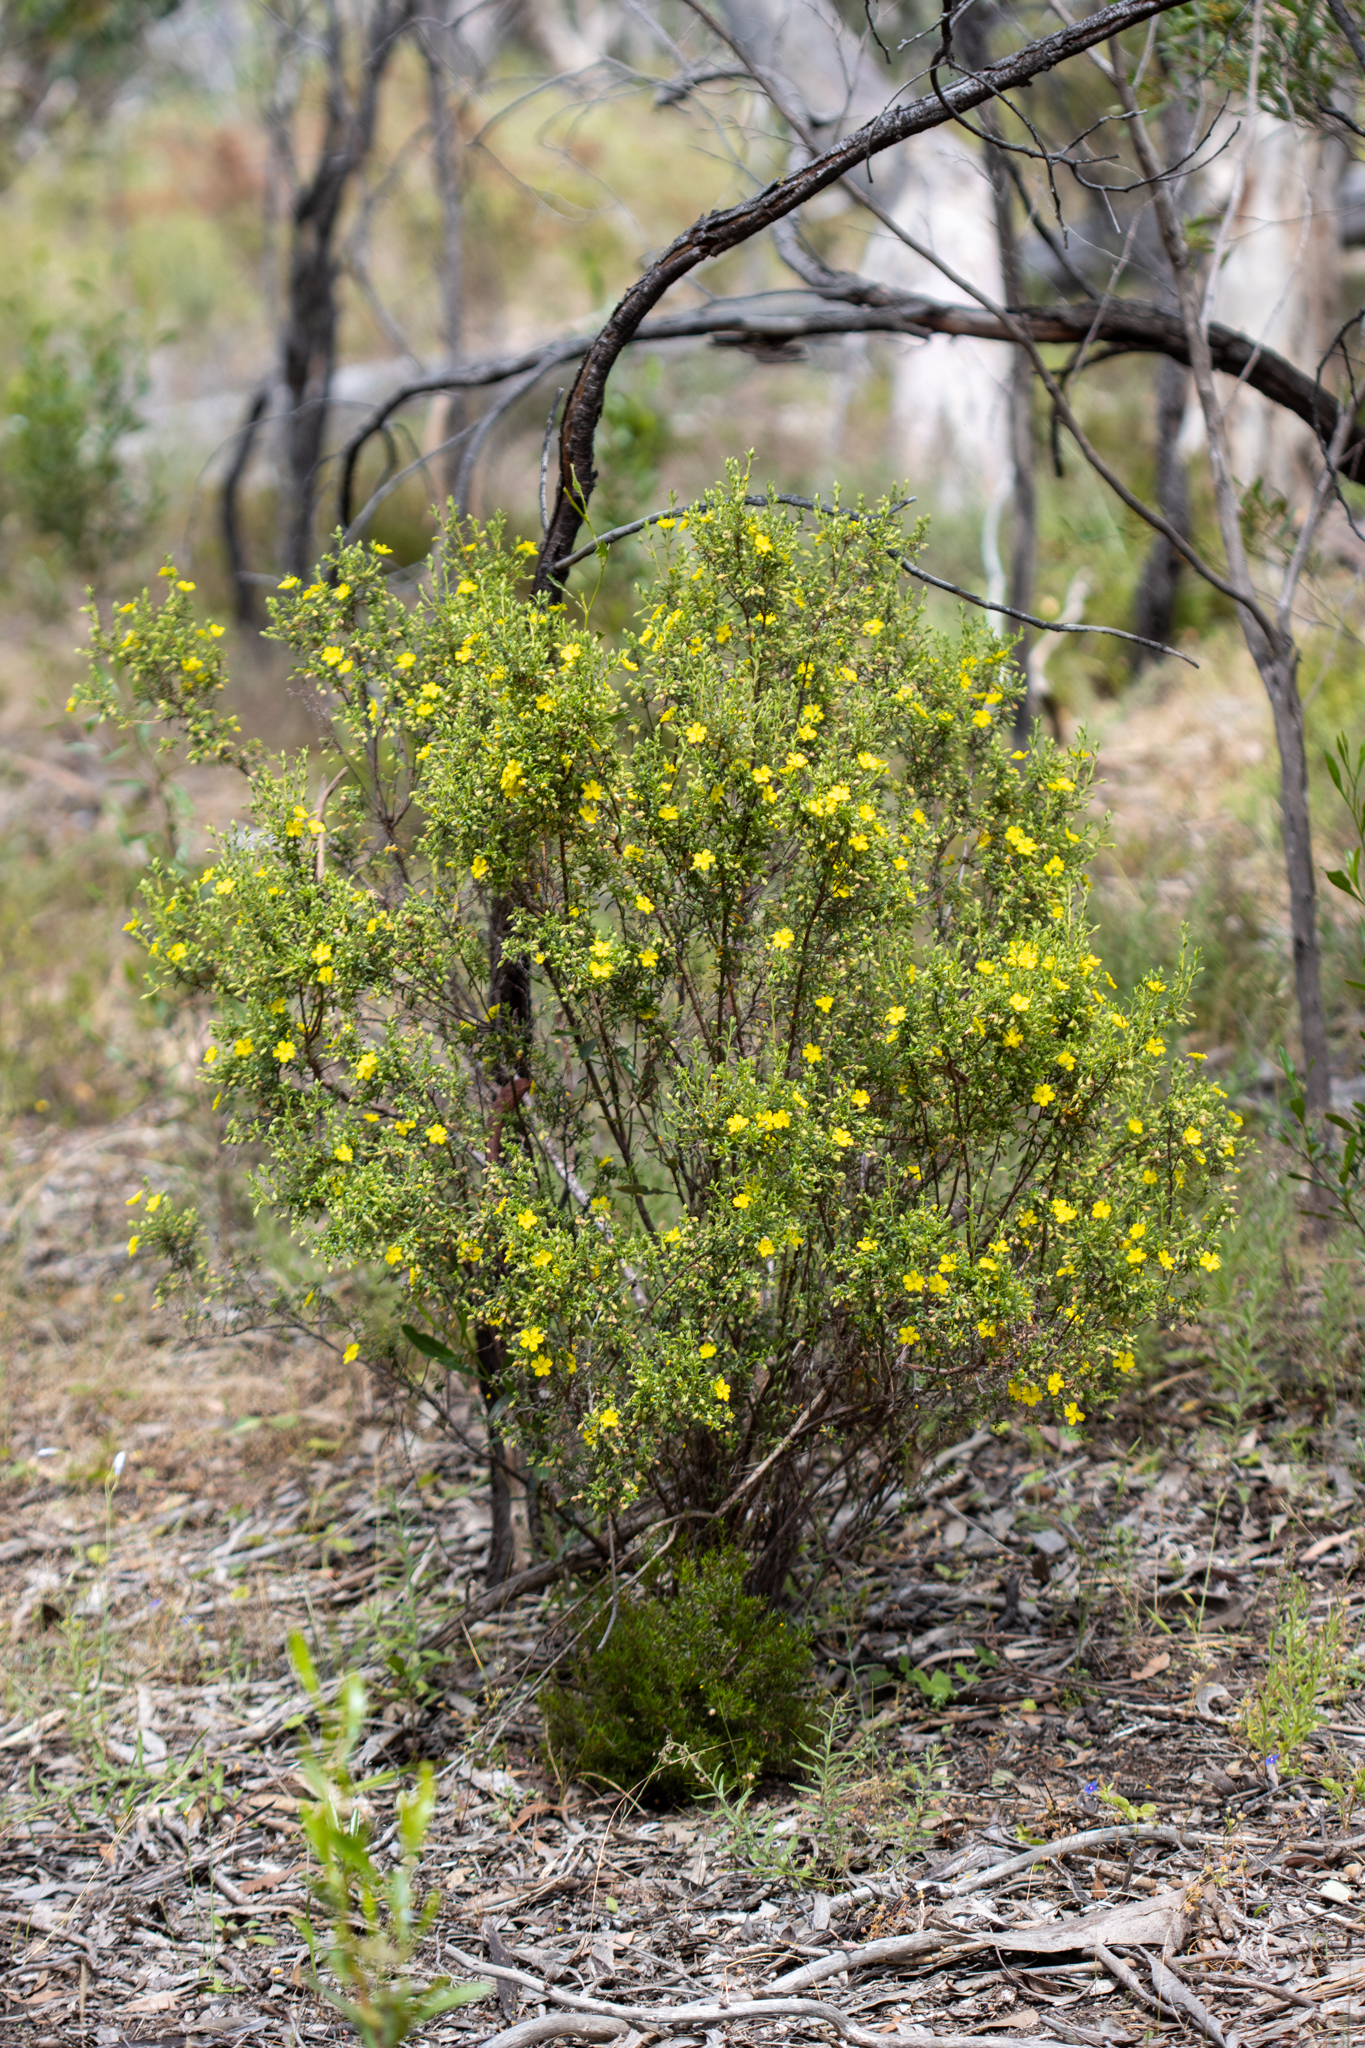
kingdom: Plantae
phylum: Tracheophyta
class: Magnoliopsida
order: Dilleniales
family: Dilleniaceae
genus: Hibbertia
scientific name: Hibbertia australis
